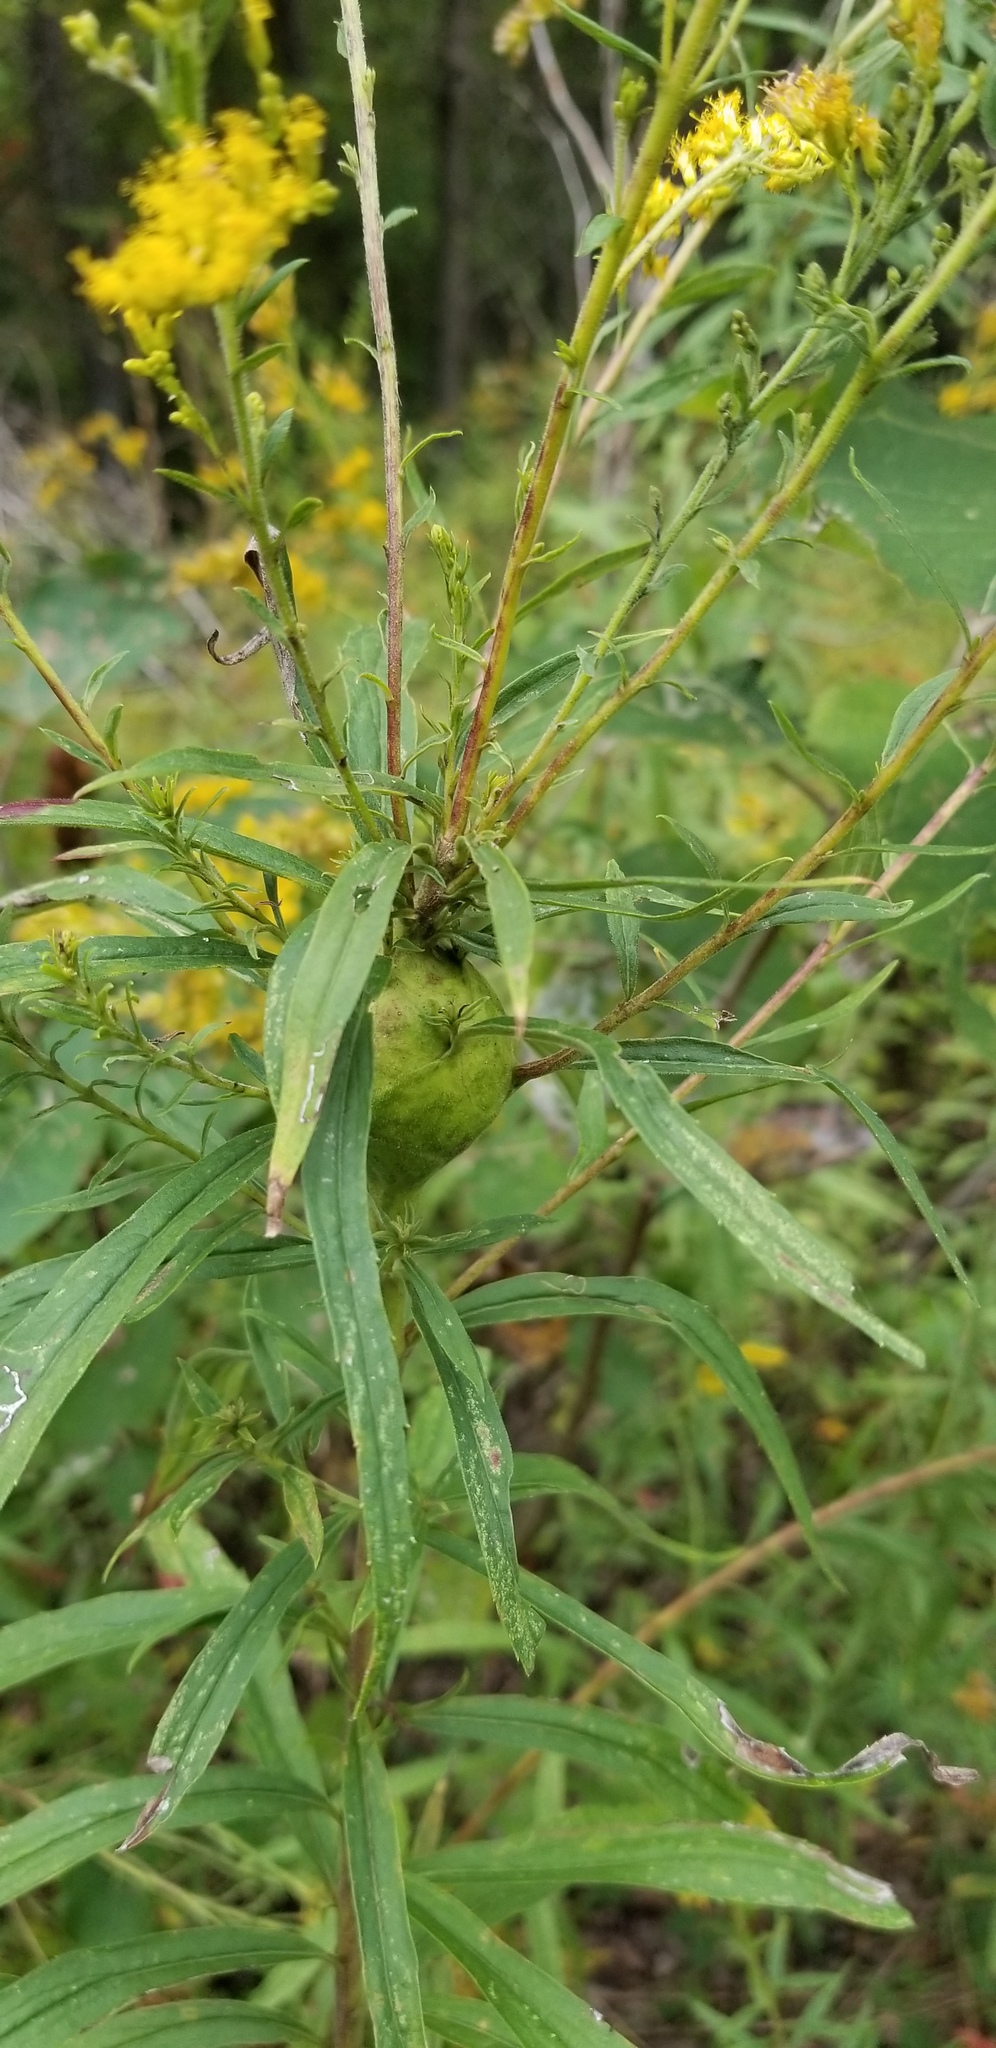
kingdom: Plantae
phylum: Tracheophyta
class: Magnoliopsida
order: Asterales
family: Asteraceae
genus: Solidago
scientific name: Solidago altissima
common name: Late goldenrod
